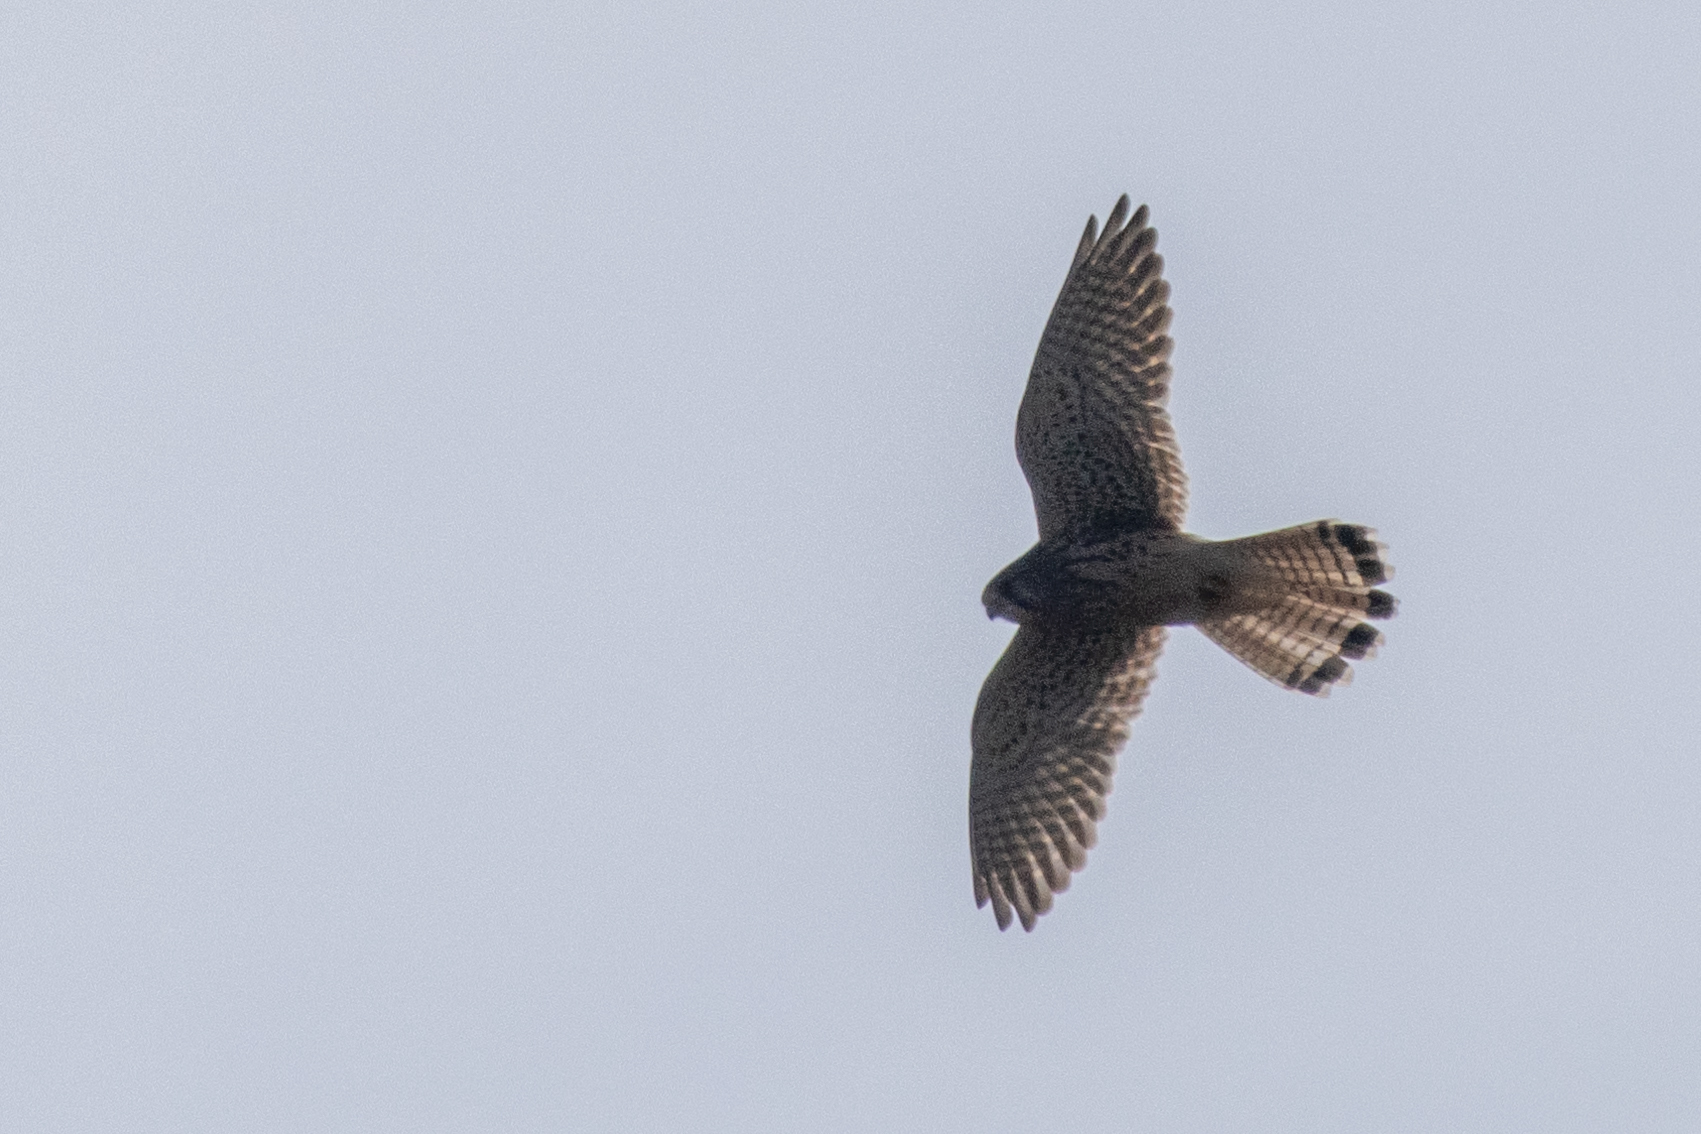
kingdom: Animalia
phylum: Chordata
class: Aves
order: Falconiformes
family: Falconidae
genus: Falco
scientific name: Falco tinnunculus
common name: Common kestrel
